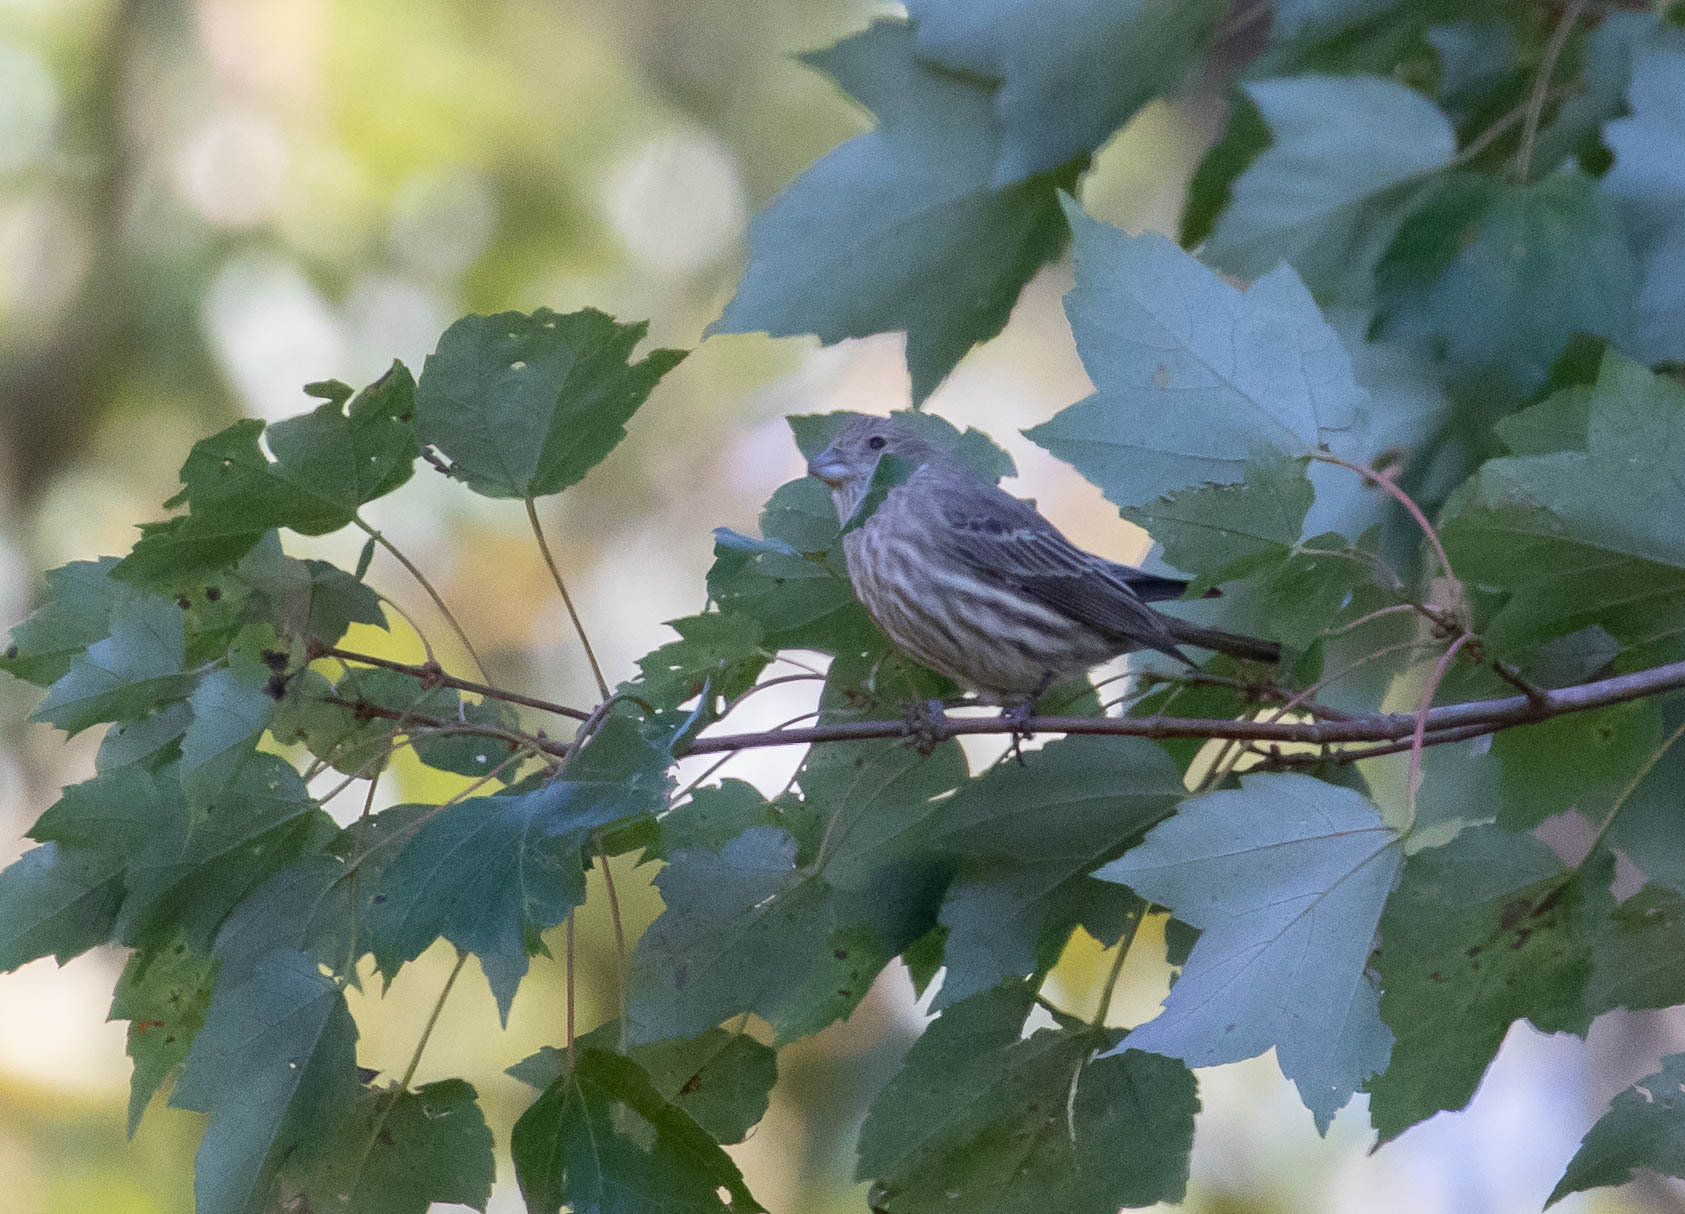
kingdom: Animalia
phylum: Chordata
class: Aves
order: Passeriformes
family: Fringillidae
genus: Haemorhous
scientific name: Haemorhous mexicanus
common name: House finch
